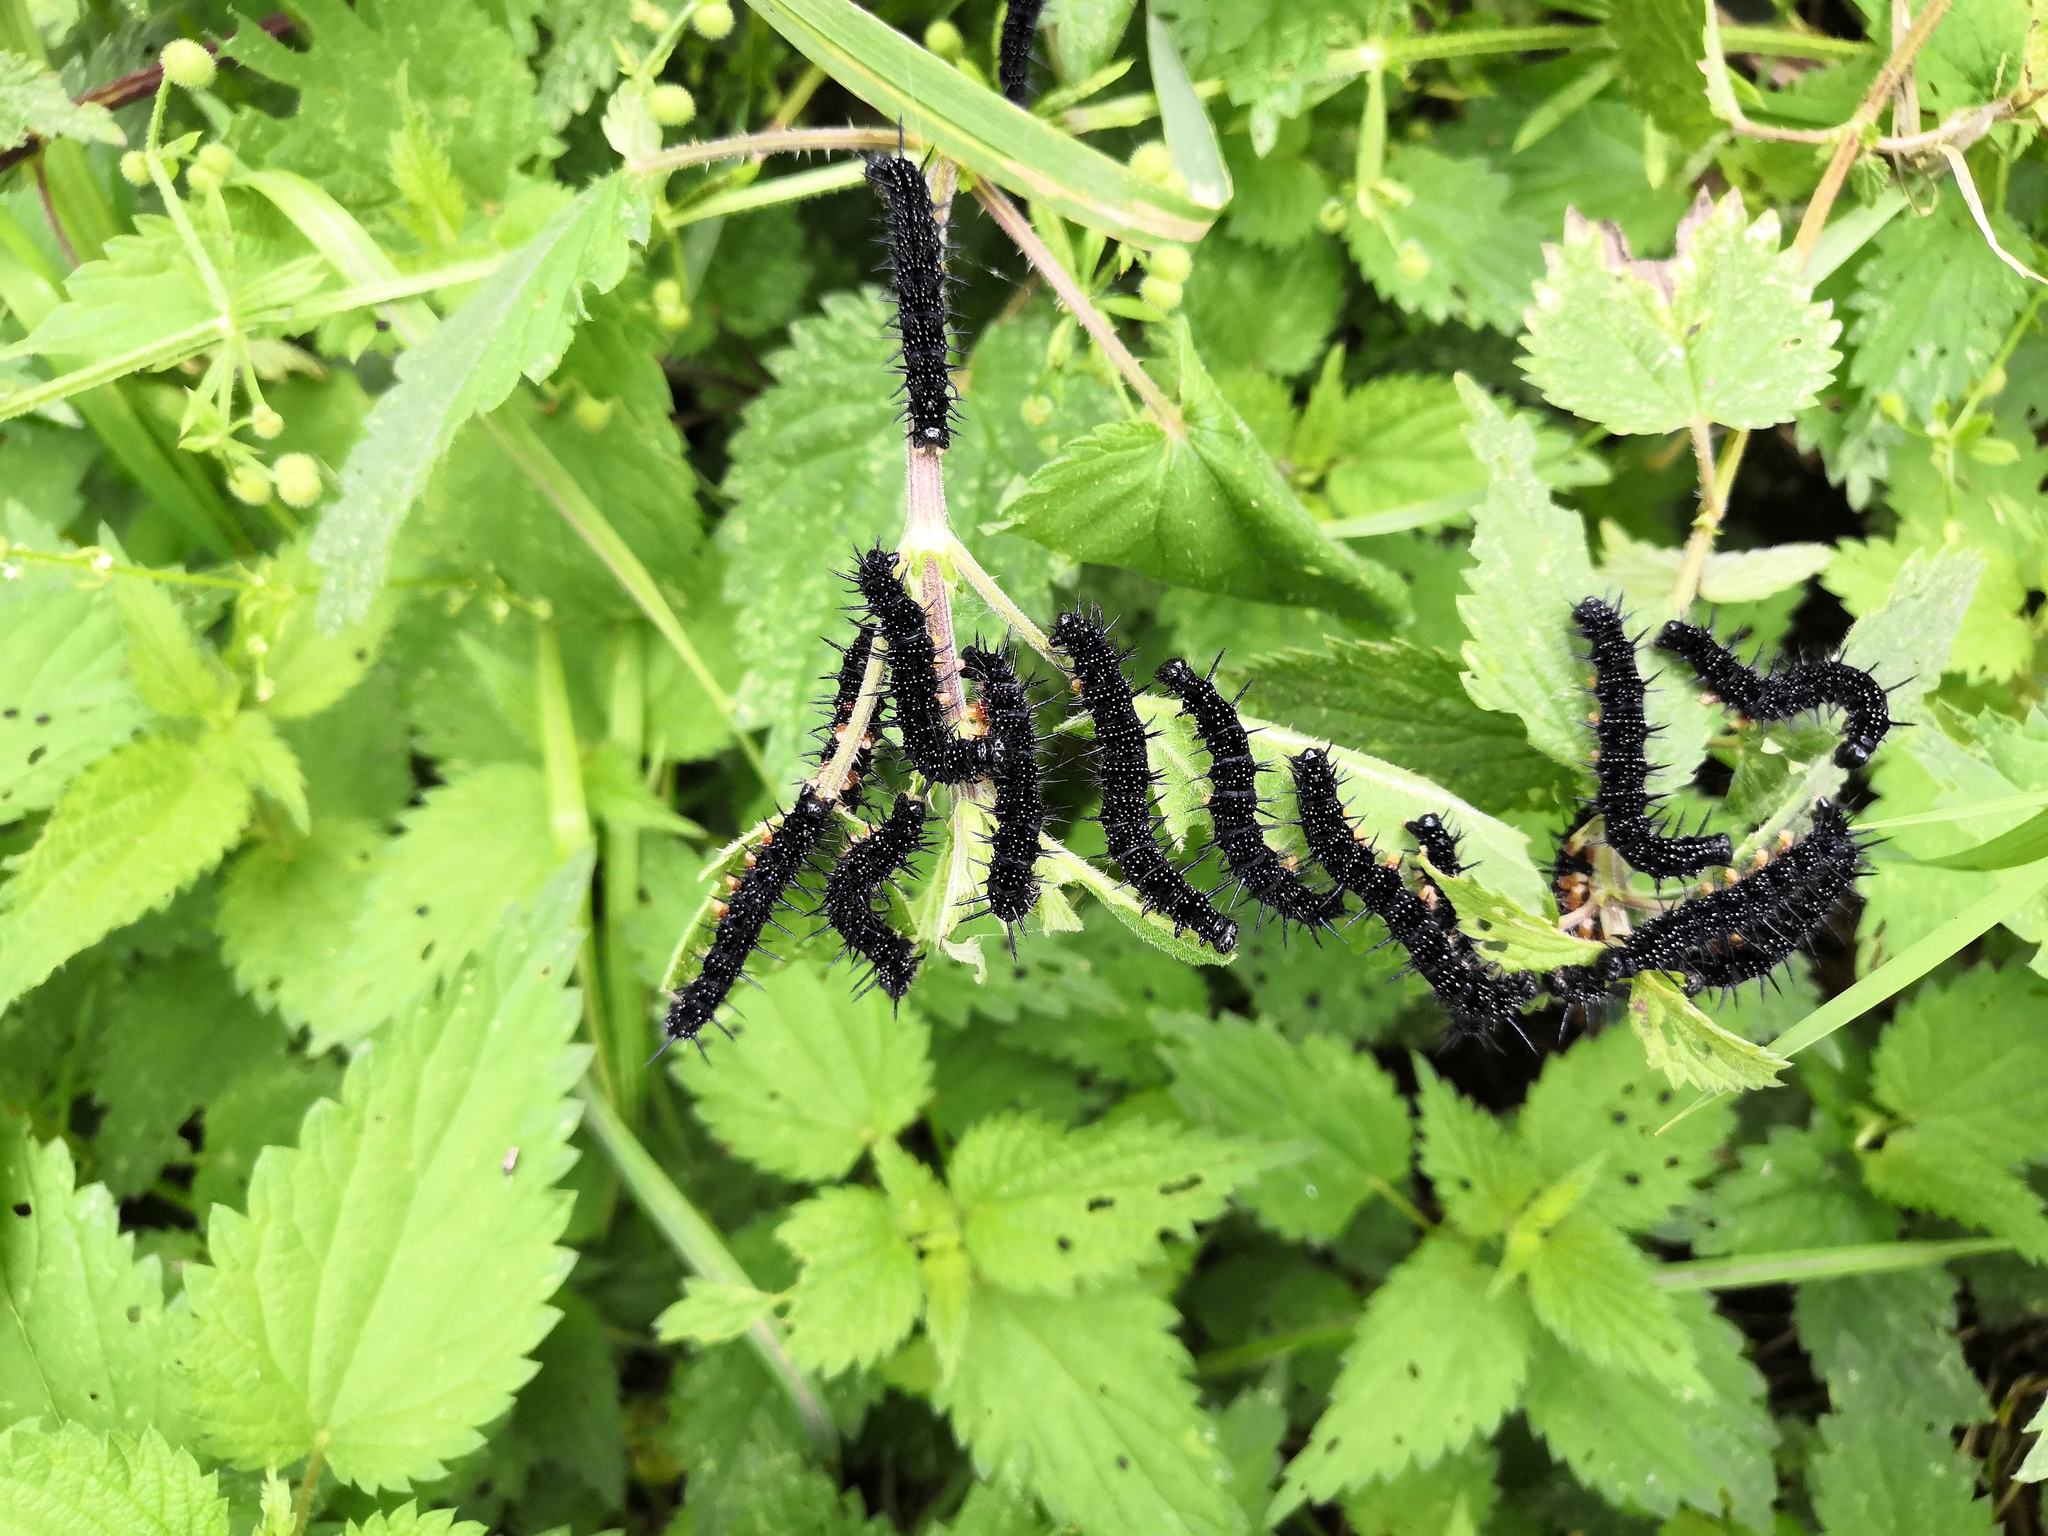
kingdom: Animalia
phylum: Arthropoda
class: Insecta
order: Lepidoptera
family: Nymphalidae
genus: Aglais
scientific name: Aglais io
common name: Peacock
